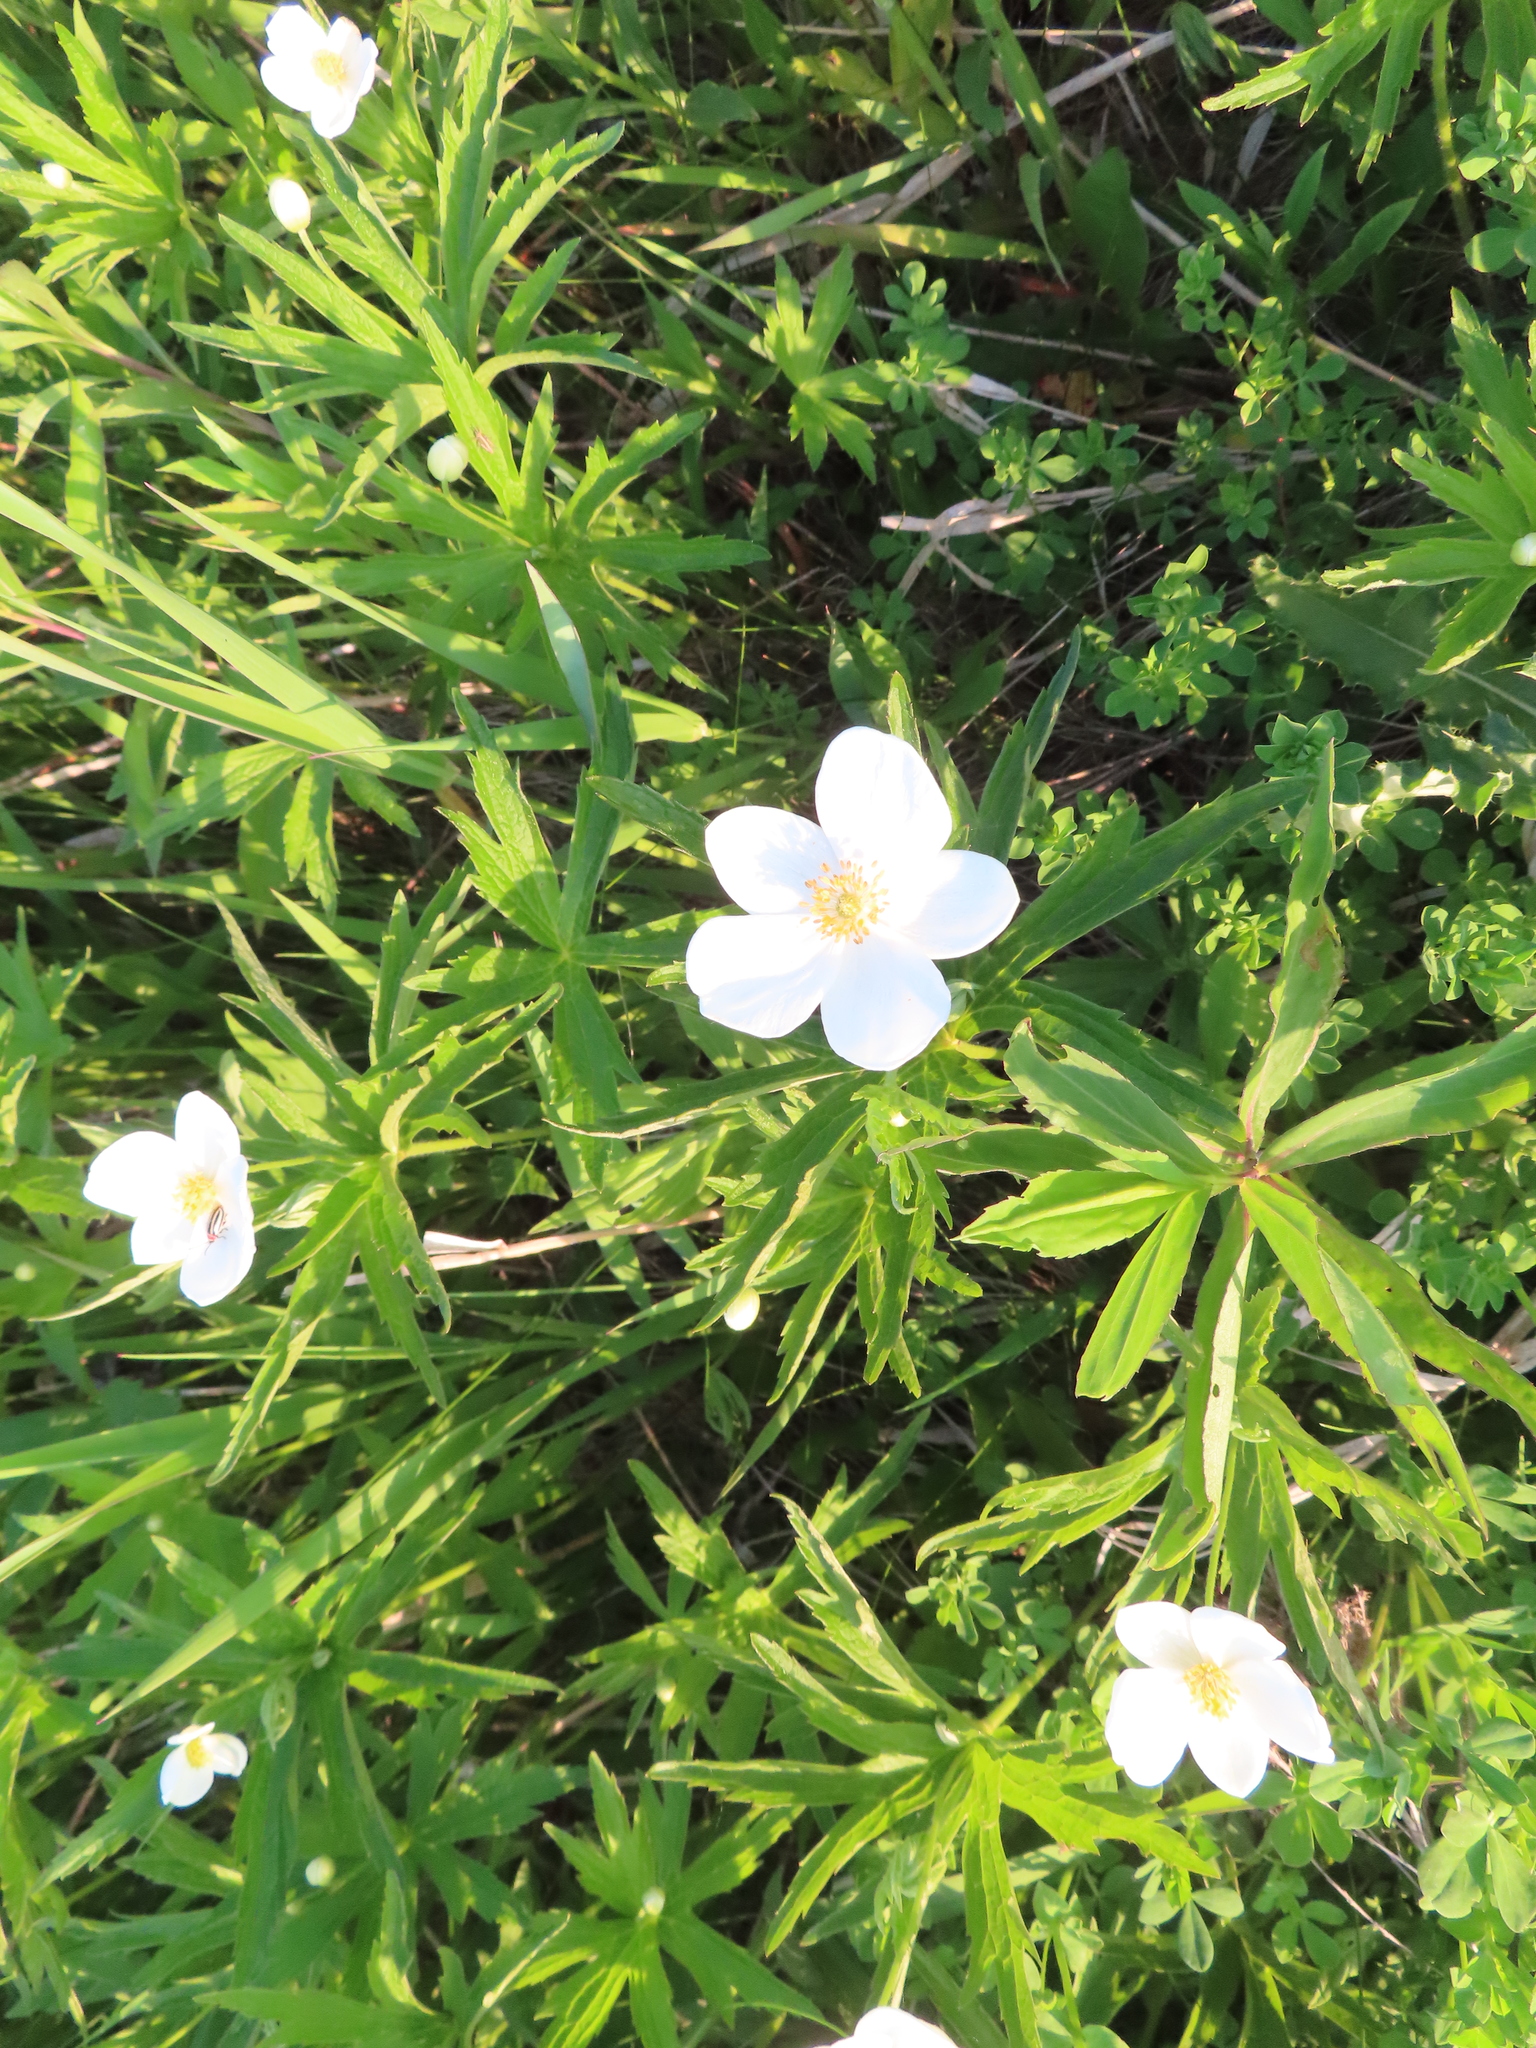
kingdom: Plantae
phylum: Tracheophyta
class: Magnoliopsida
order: Ranunculales
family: Ranunculaceae
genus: Anemonastrum
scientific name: Anemonastrum canadense
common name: Canada anemone
